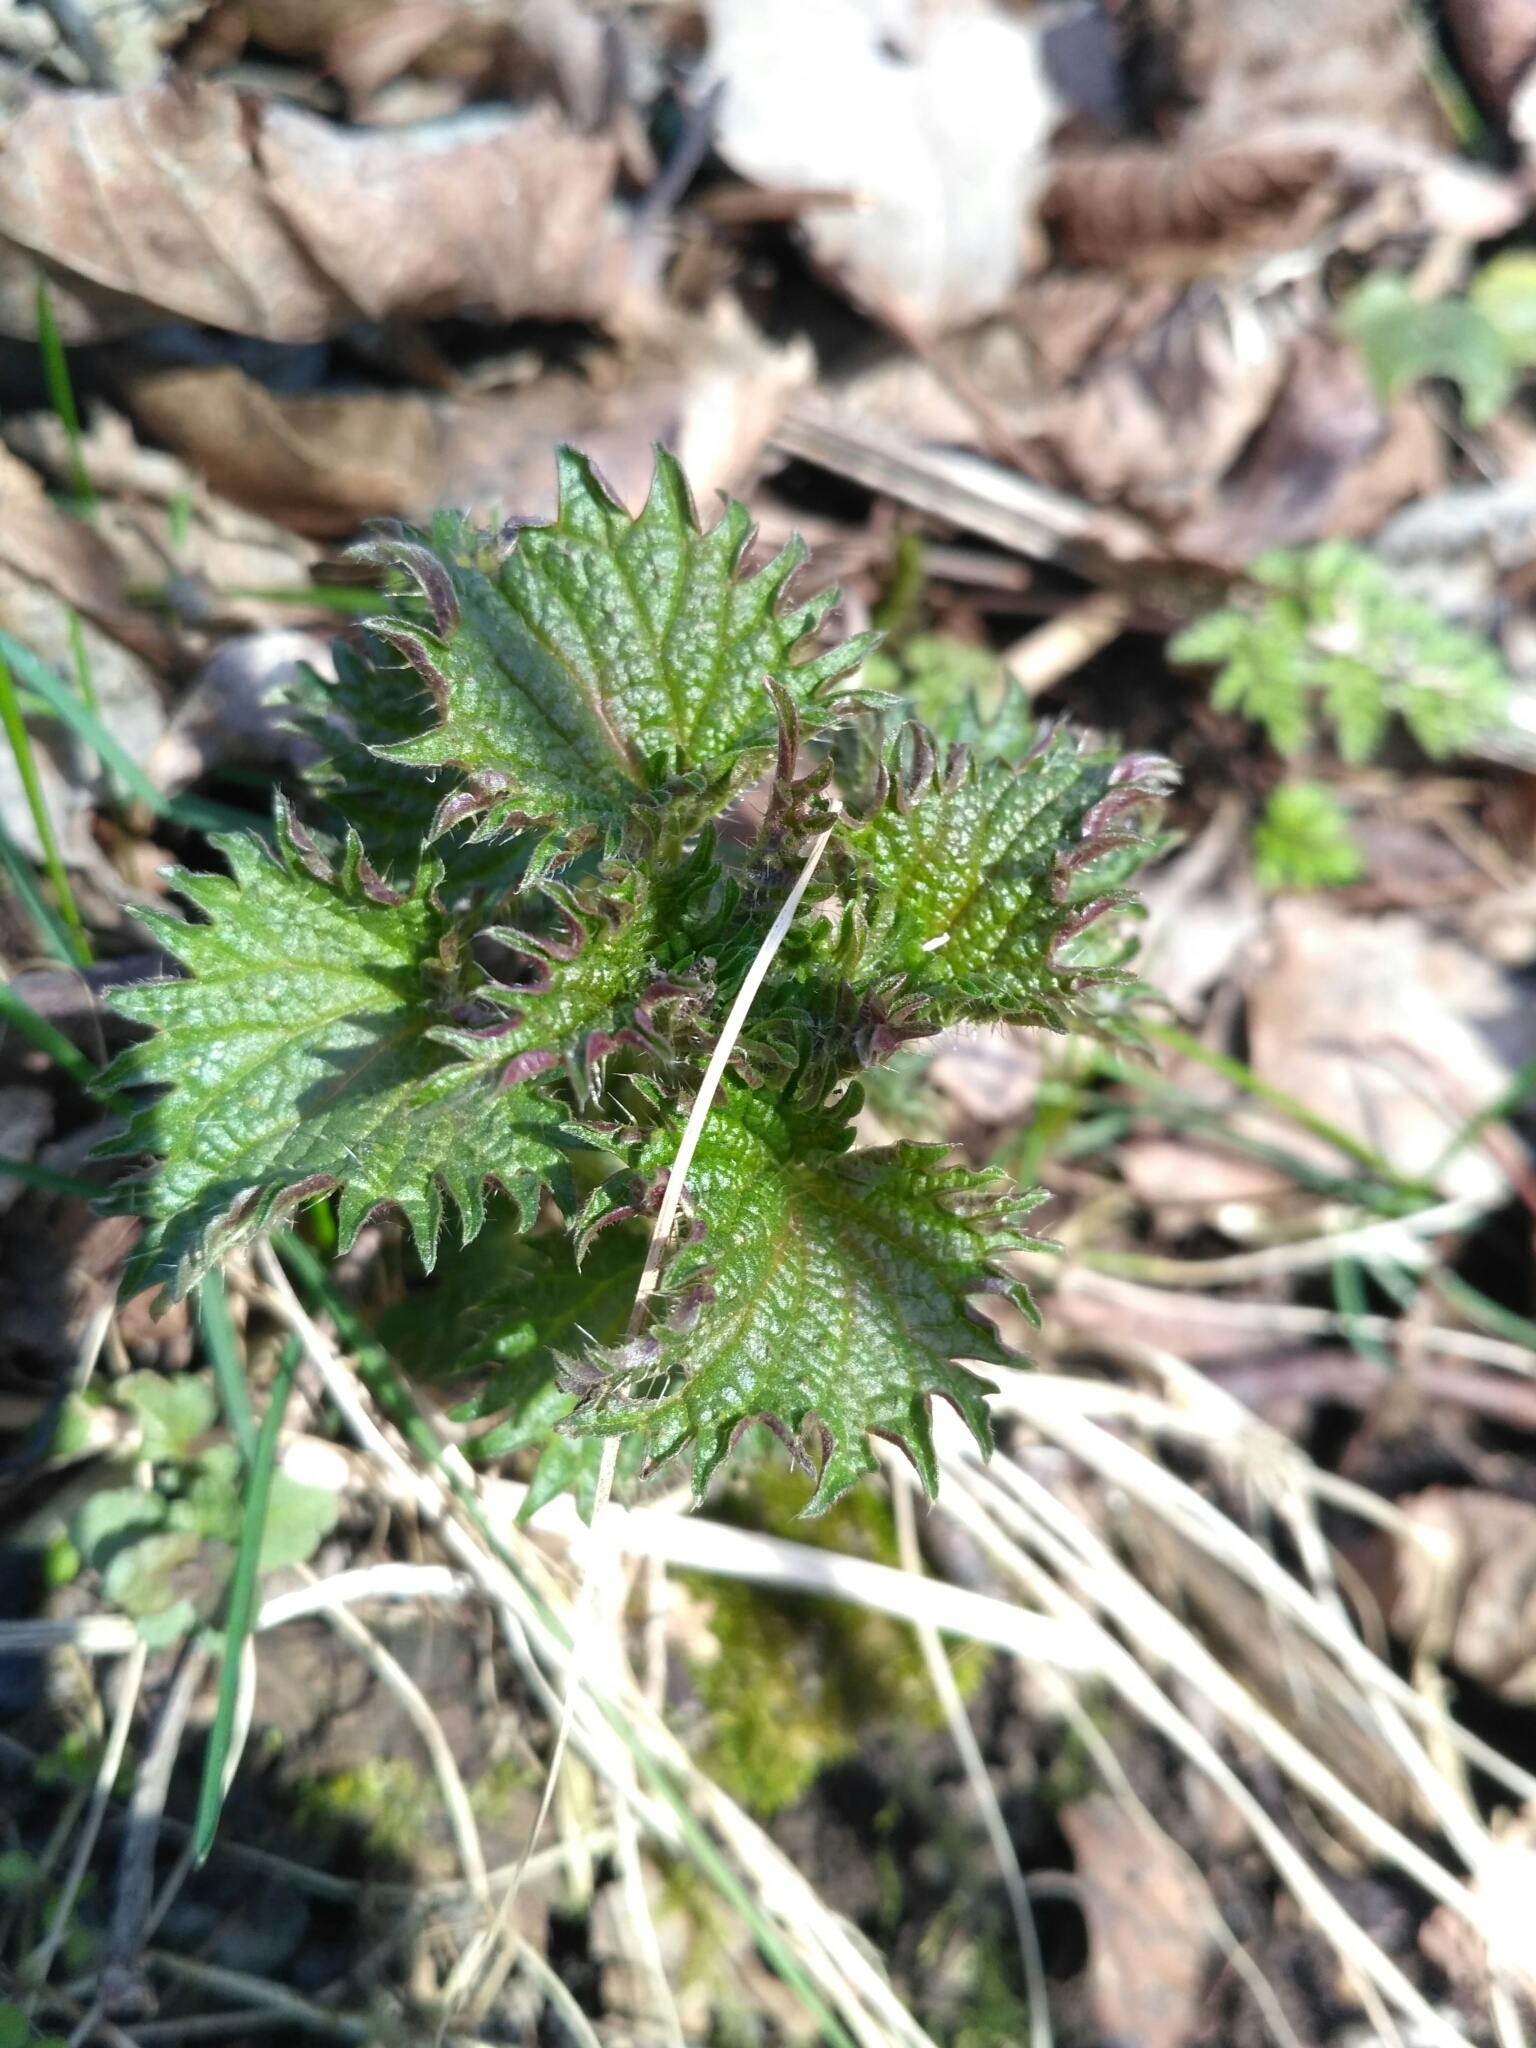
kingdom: Plantae
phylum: Tracheophyta
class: Magnoliopsida
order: Rosales
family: Urticaceae
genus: Urtica
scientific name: Urtica dioica
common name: Common nettle
